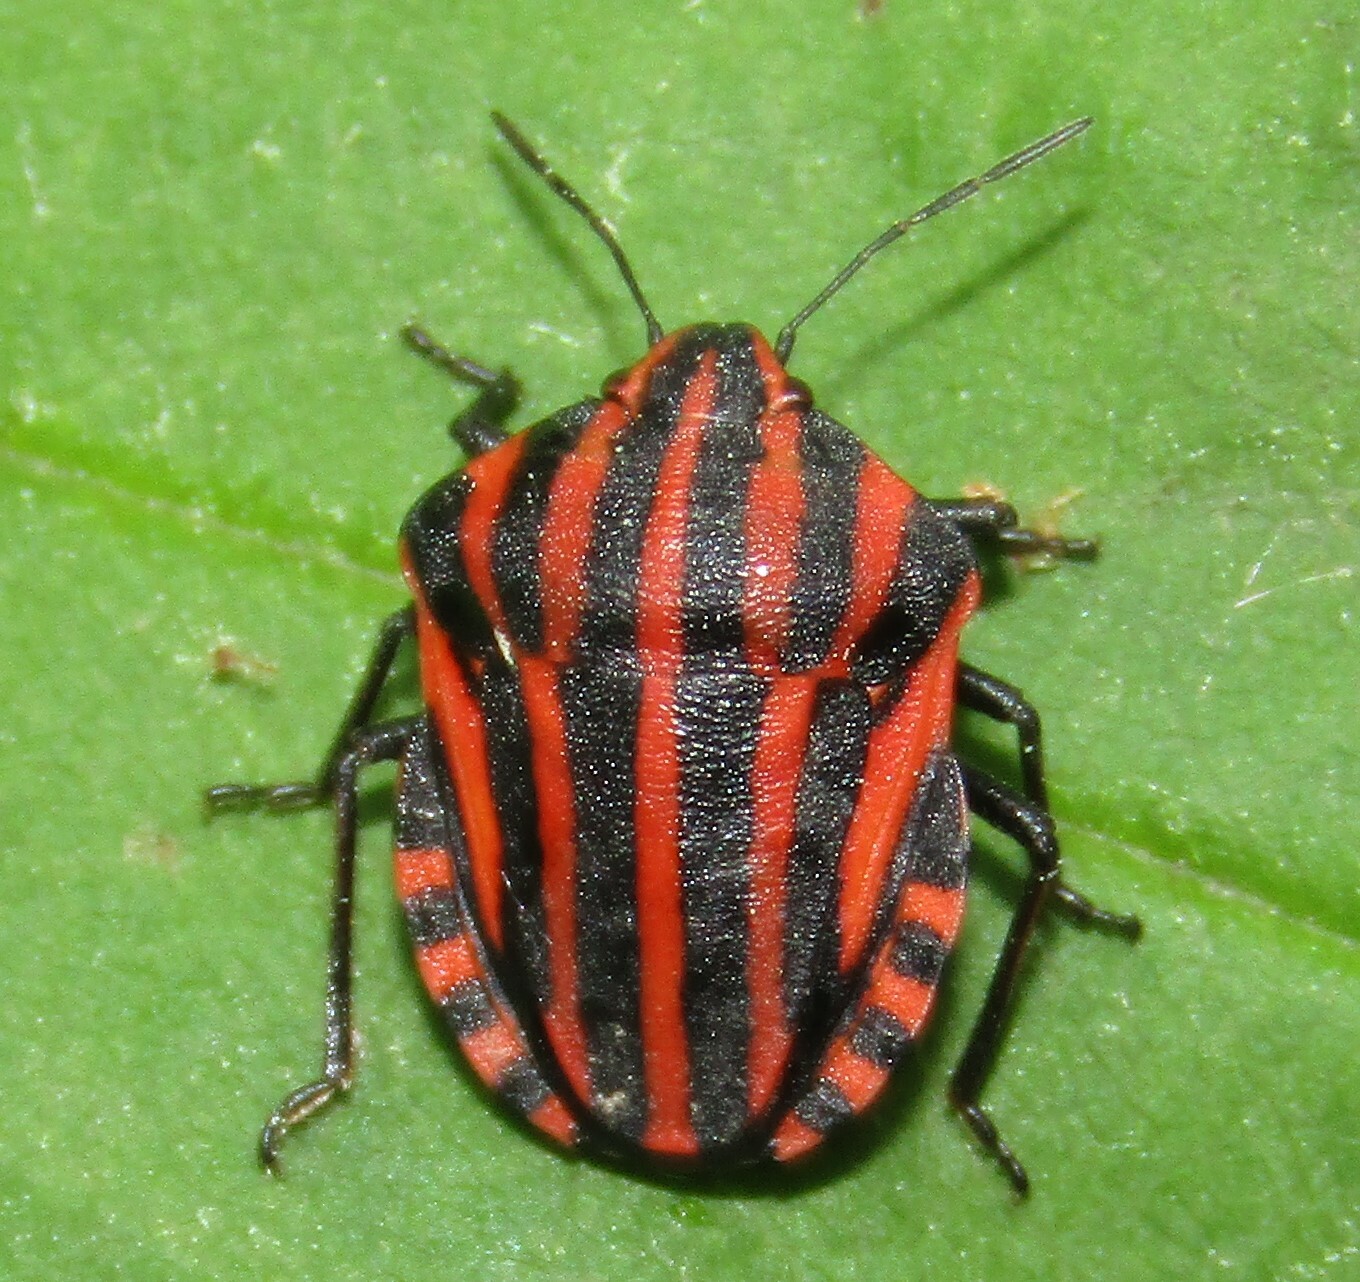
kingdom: Animalia
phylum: Arthropoda
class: Insecta
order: Hemiptera
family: Pentatomidae
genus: Graphosoma
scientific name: Graphosoma italicum
